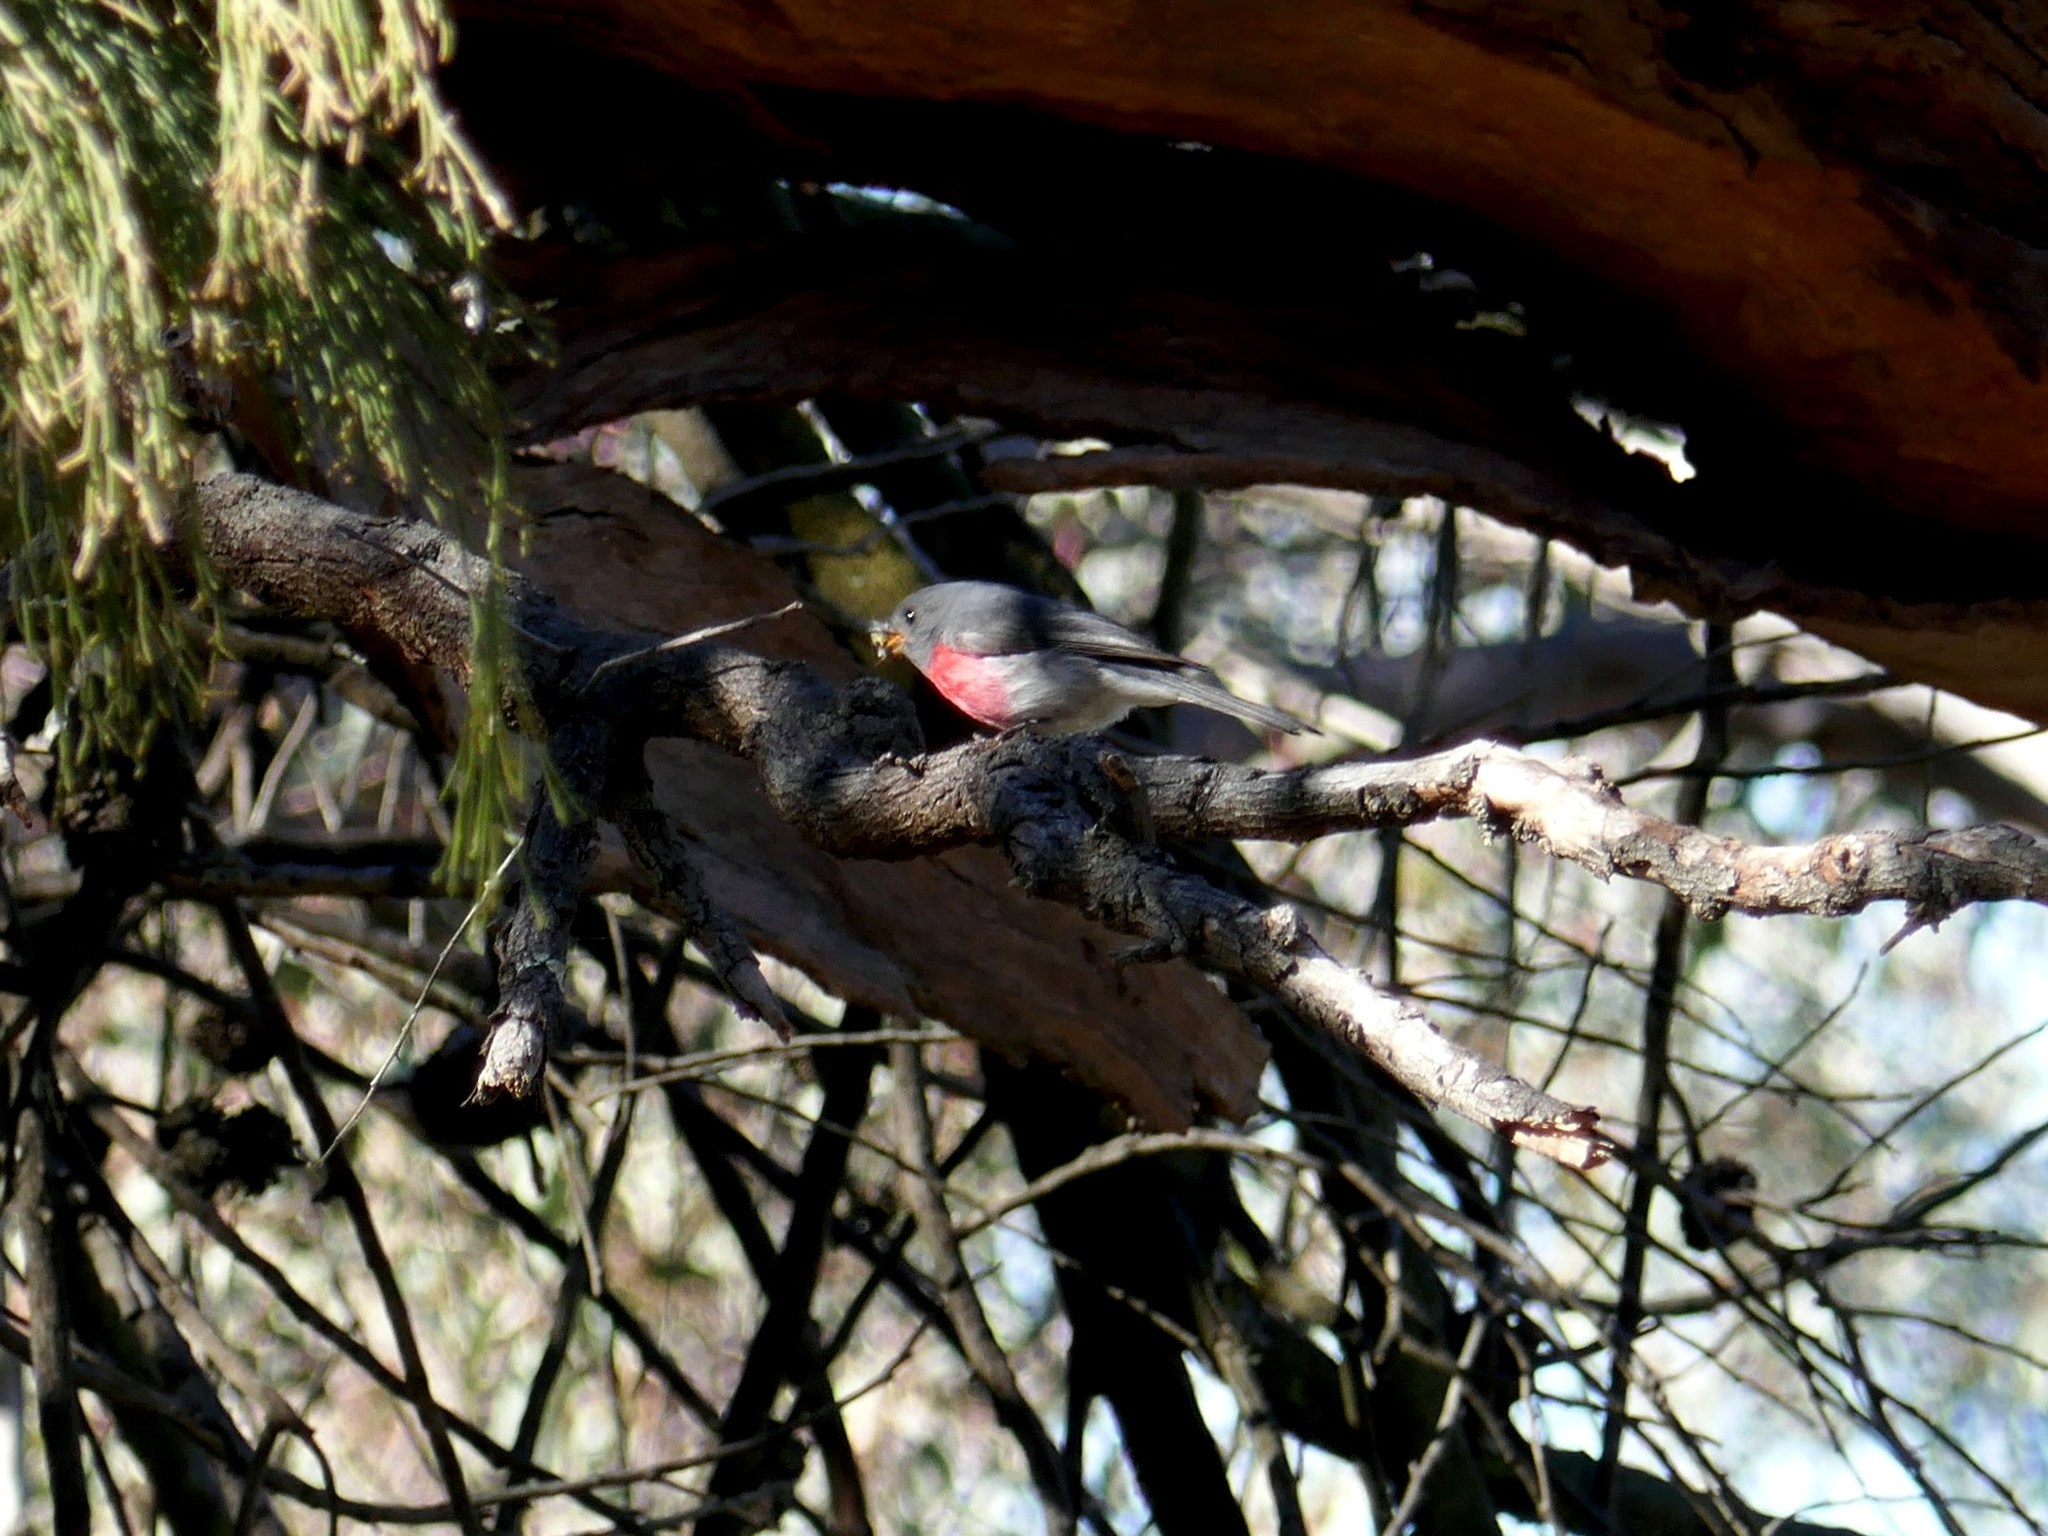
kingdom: Animalia
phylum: Chordata
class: Aves
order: Passeriformes
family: Petroicidae
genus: Petroica
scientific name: Petroica rosea
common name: Rose robin
